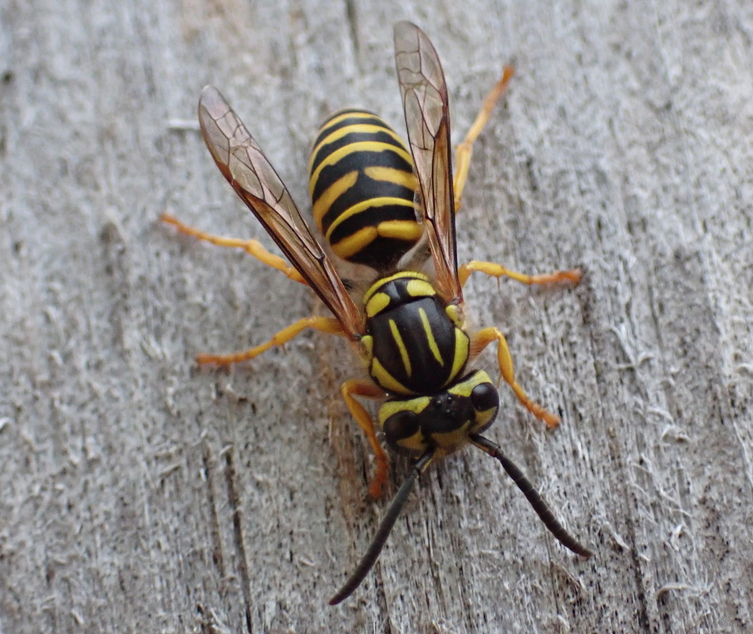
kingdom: Animalia
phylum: Arthropoda
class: Insecta
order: Hymenoptera
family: Vespidae
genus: Vespula
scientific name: Vespula squamosa
